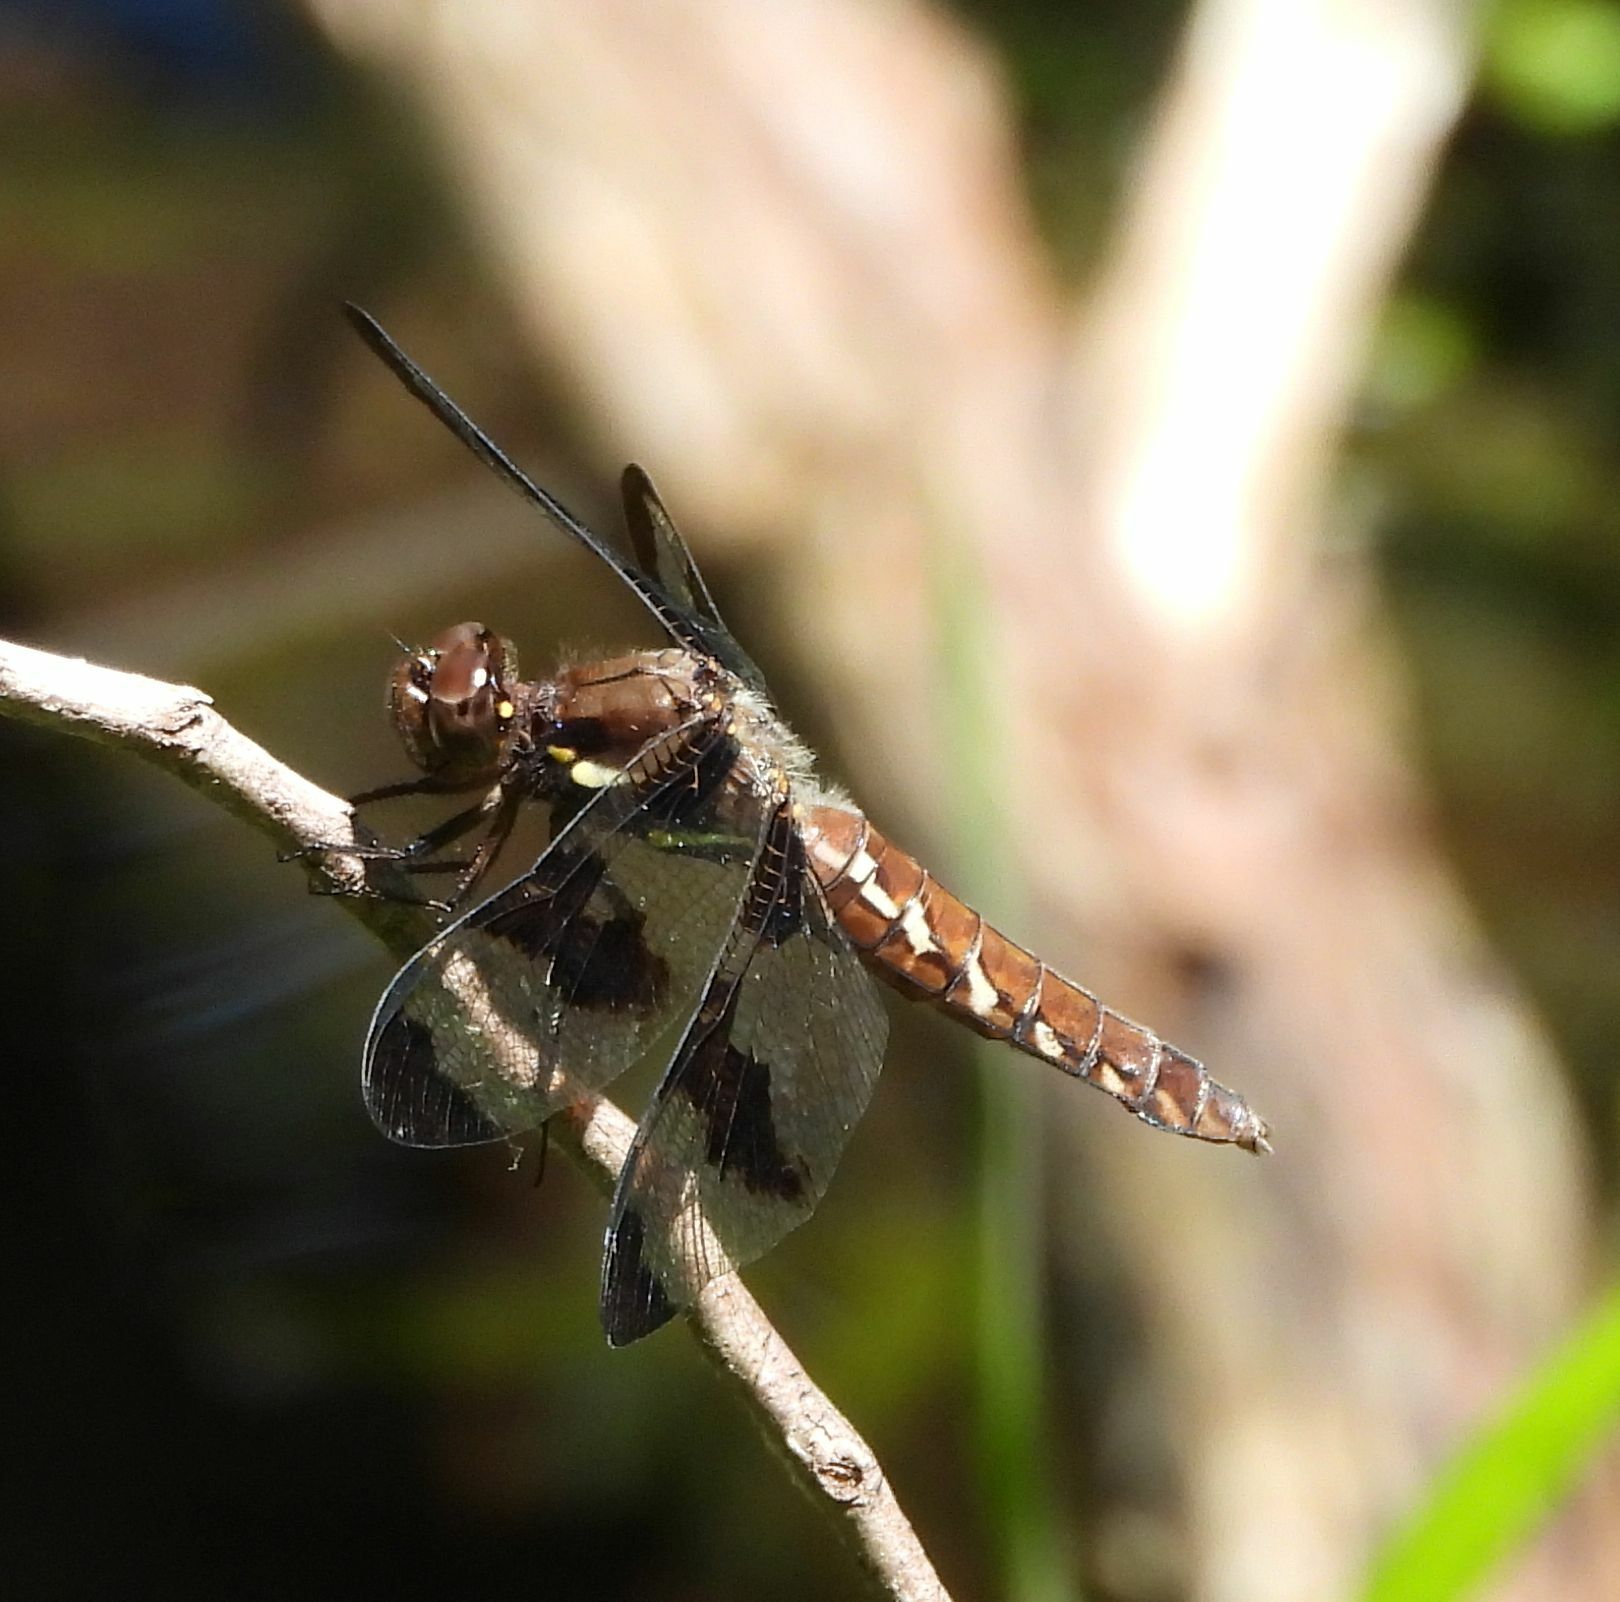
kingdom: Animalia
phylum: Arthropoda
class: Insecta
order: Odonata
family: Libellulidae
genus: Plathemis
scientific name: Plathemis lydia
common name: Common whitetail
